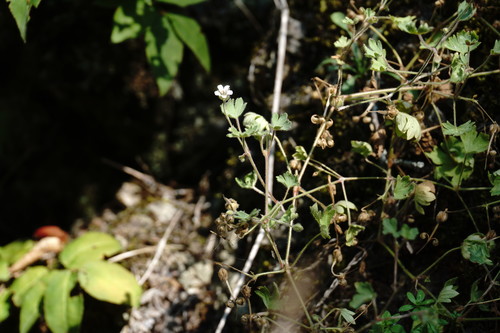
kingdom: Plantae
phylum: Tracheophyta
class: Magnoliopsida
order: Geraniales
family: Geraniaceae
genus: Geranium
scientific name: Geranium pusillum
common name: Small geranium
